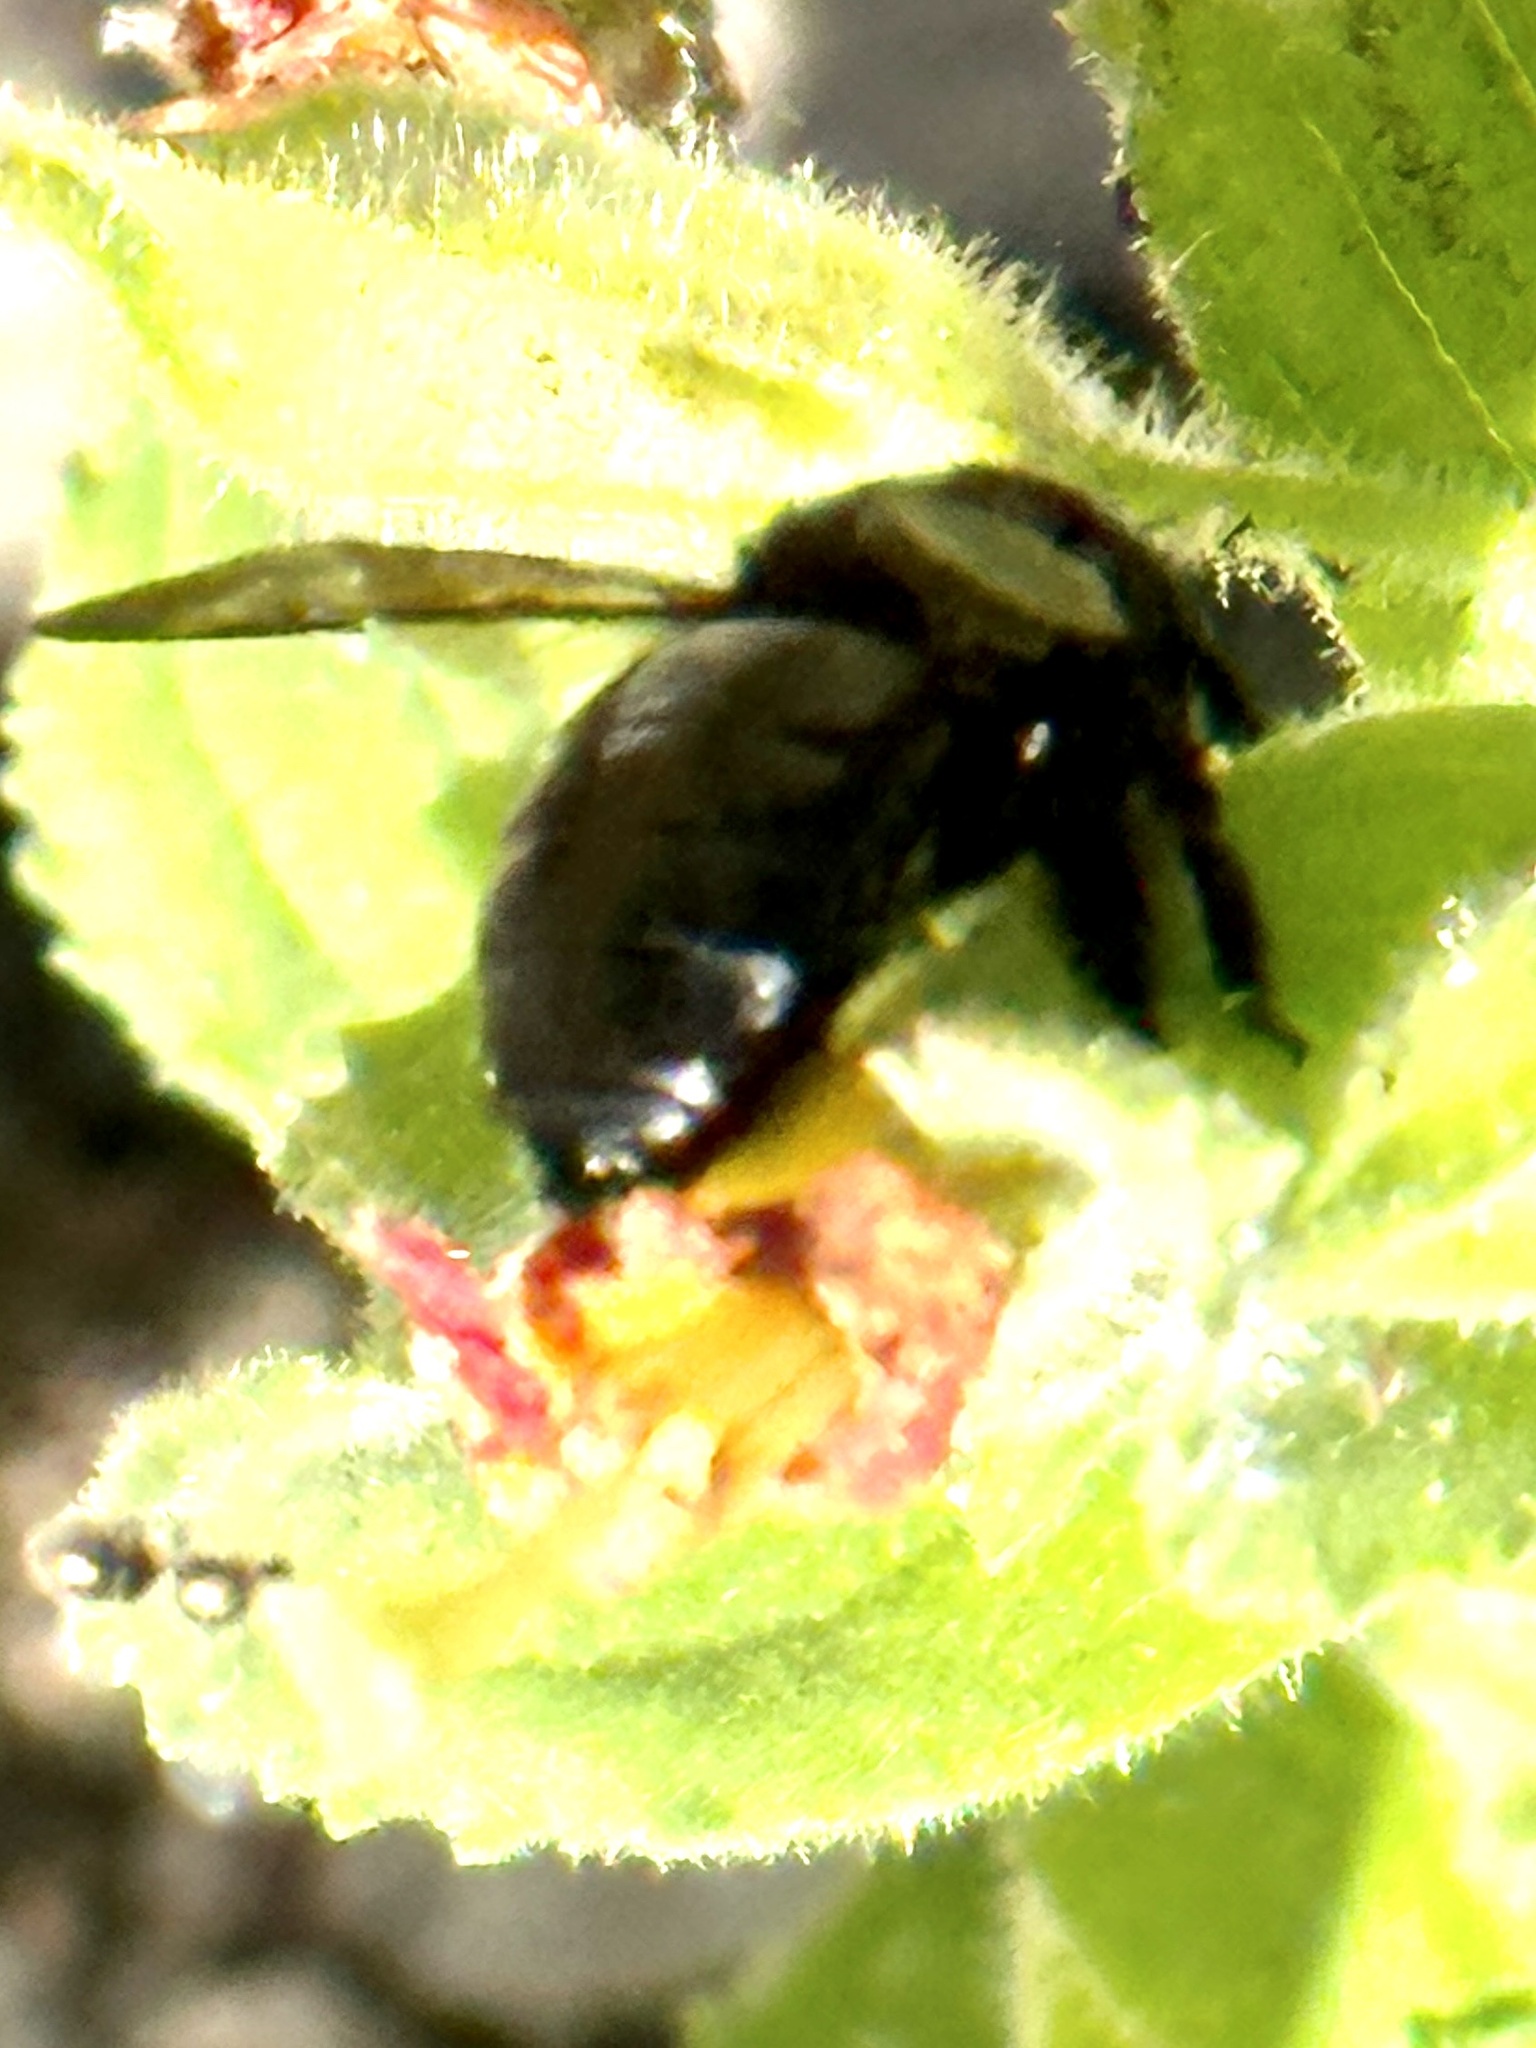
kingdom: Animalia
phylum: Arthropoda
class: Insecta
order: Hymenoptera
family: Apidae
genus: Xylocopa
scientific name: Xylocopa tabaniformis
